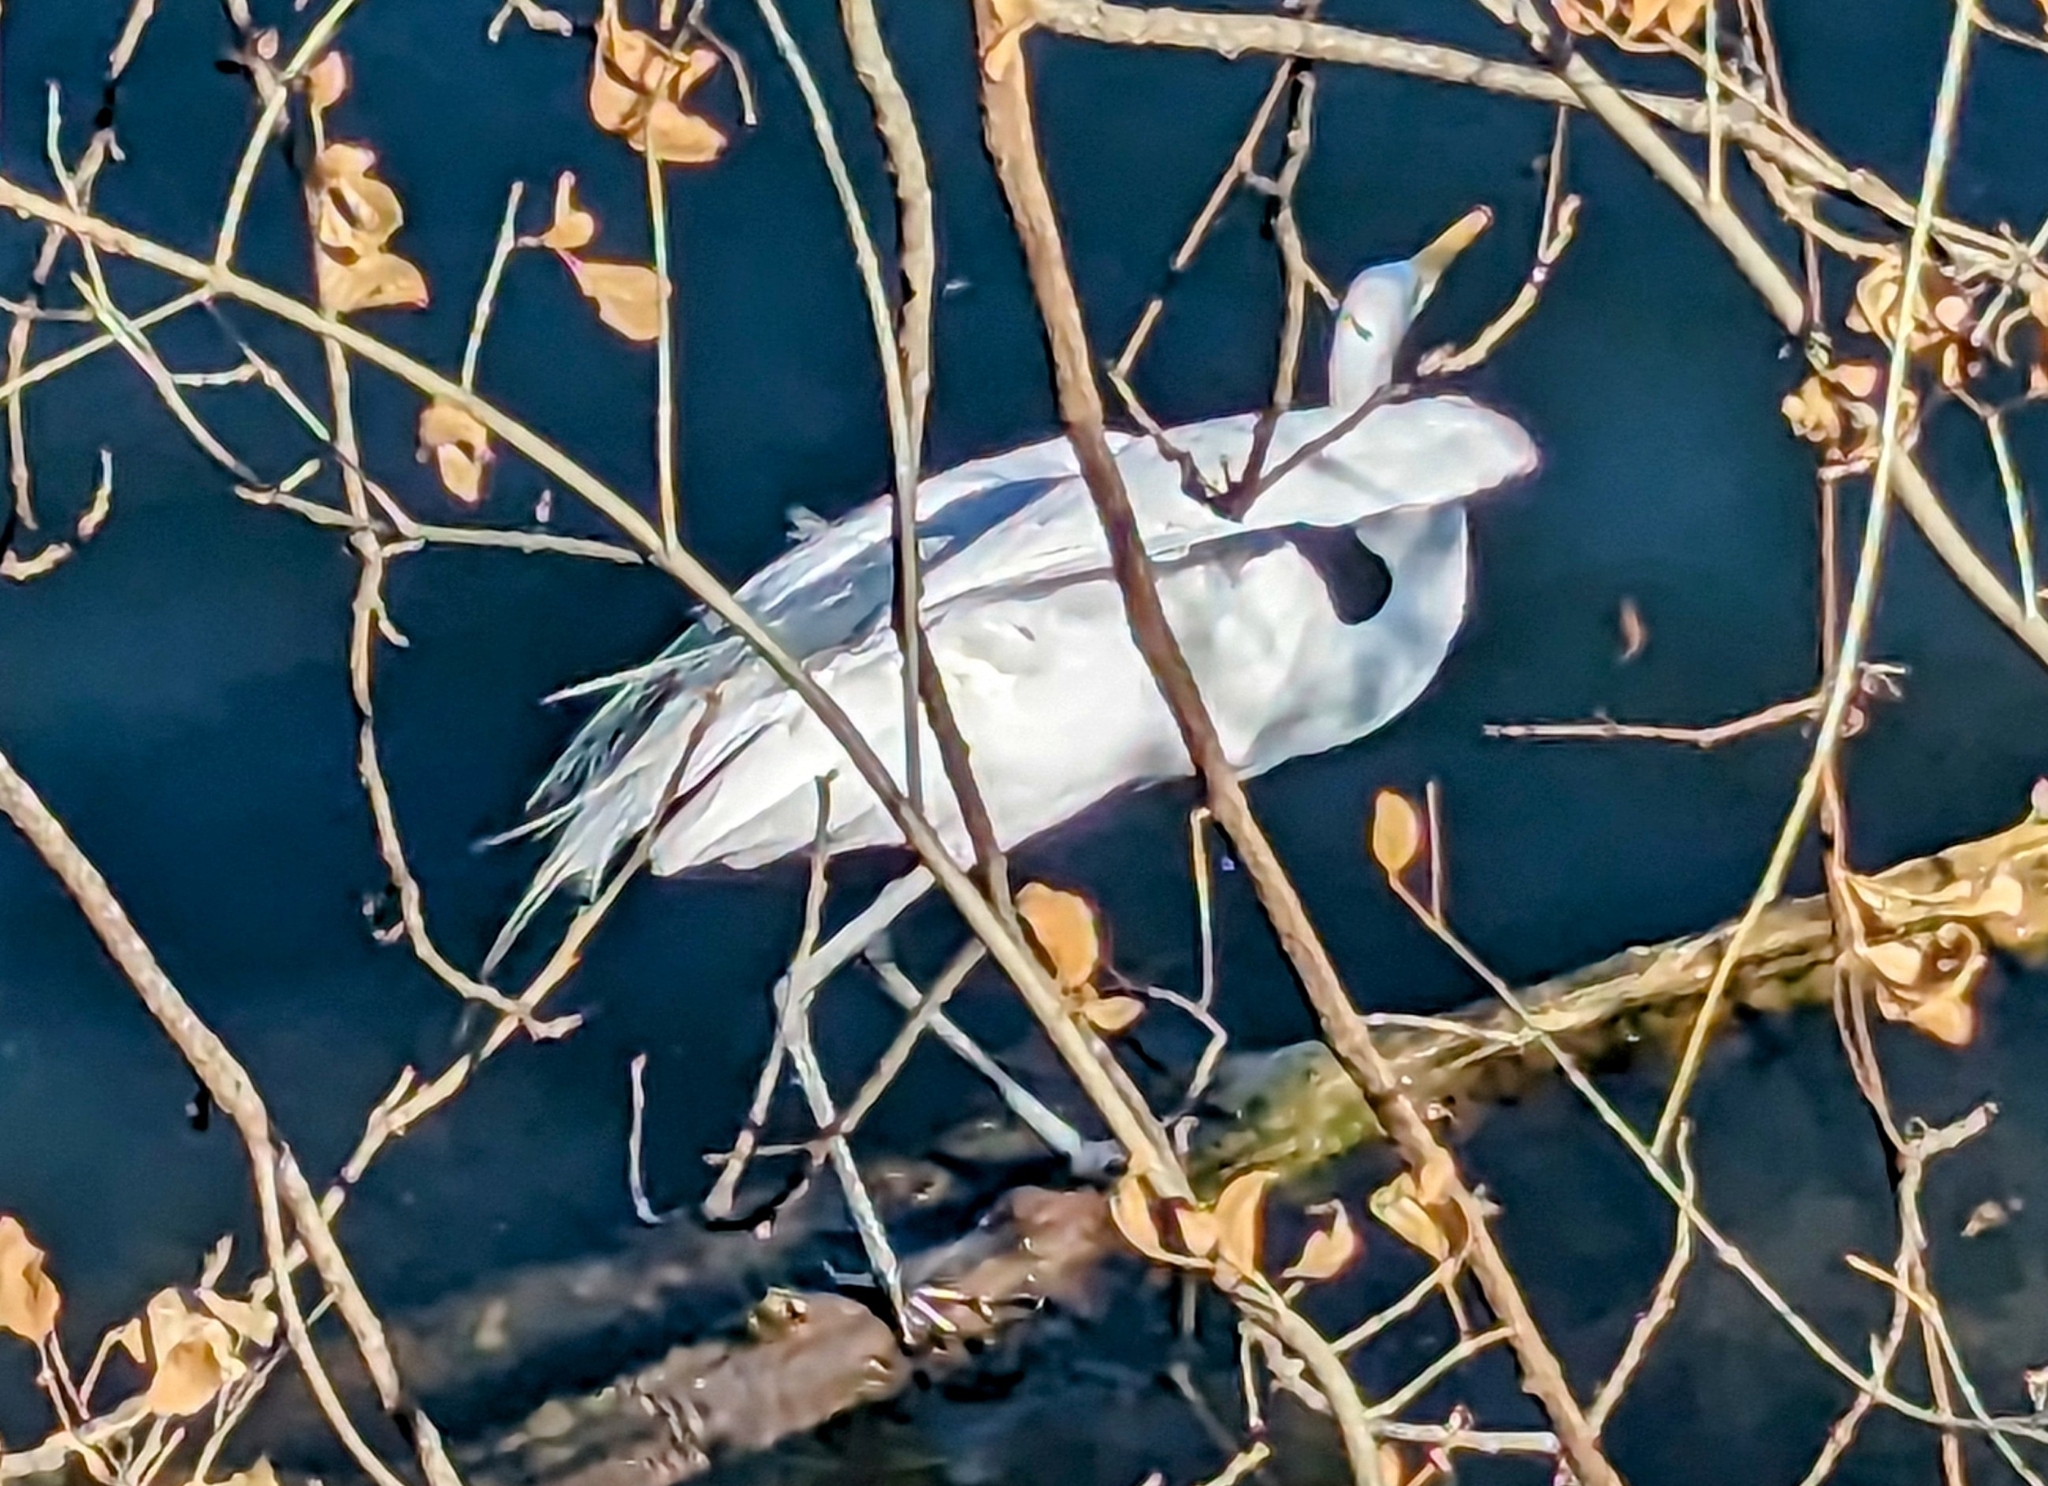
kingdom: Animalia
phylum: Chordata
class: Aves
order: Pelecaniformes
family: Ardeidae
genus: Ardea
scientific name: Ardea alba
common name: Great egret
